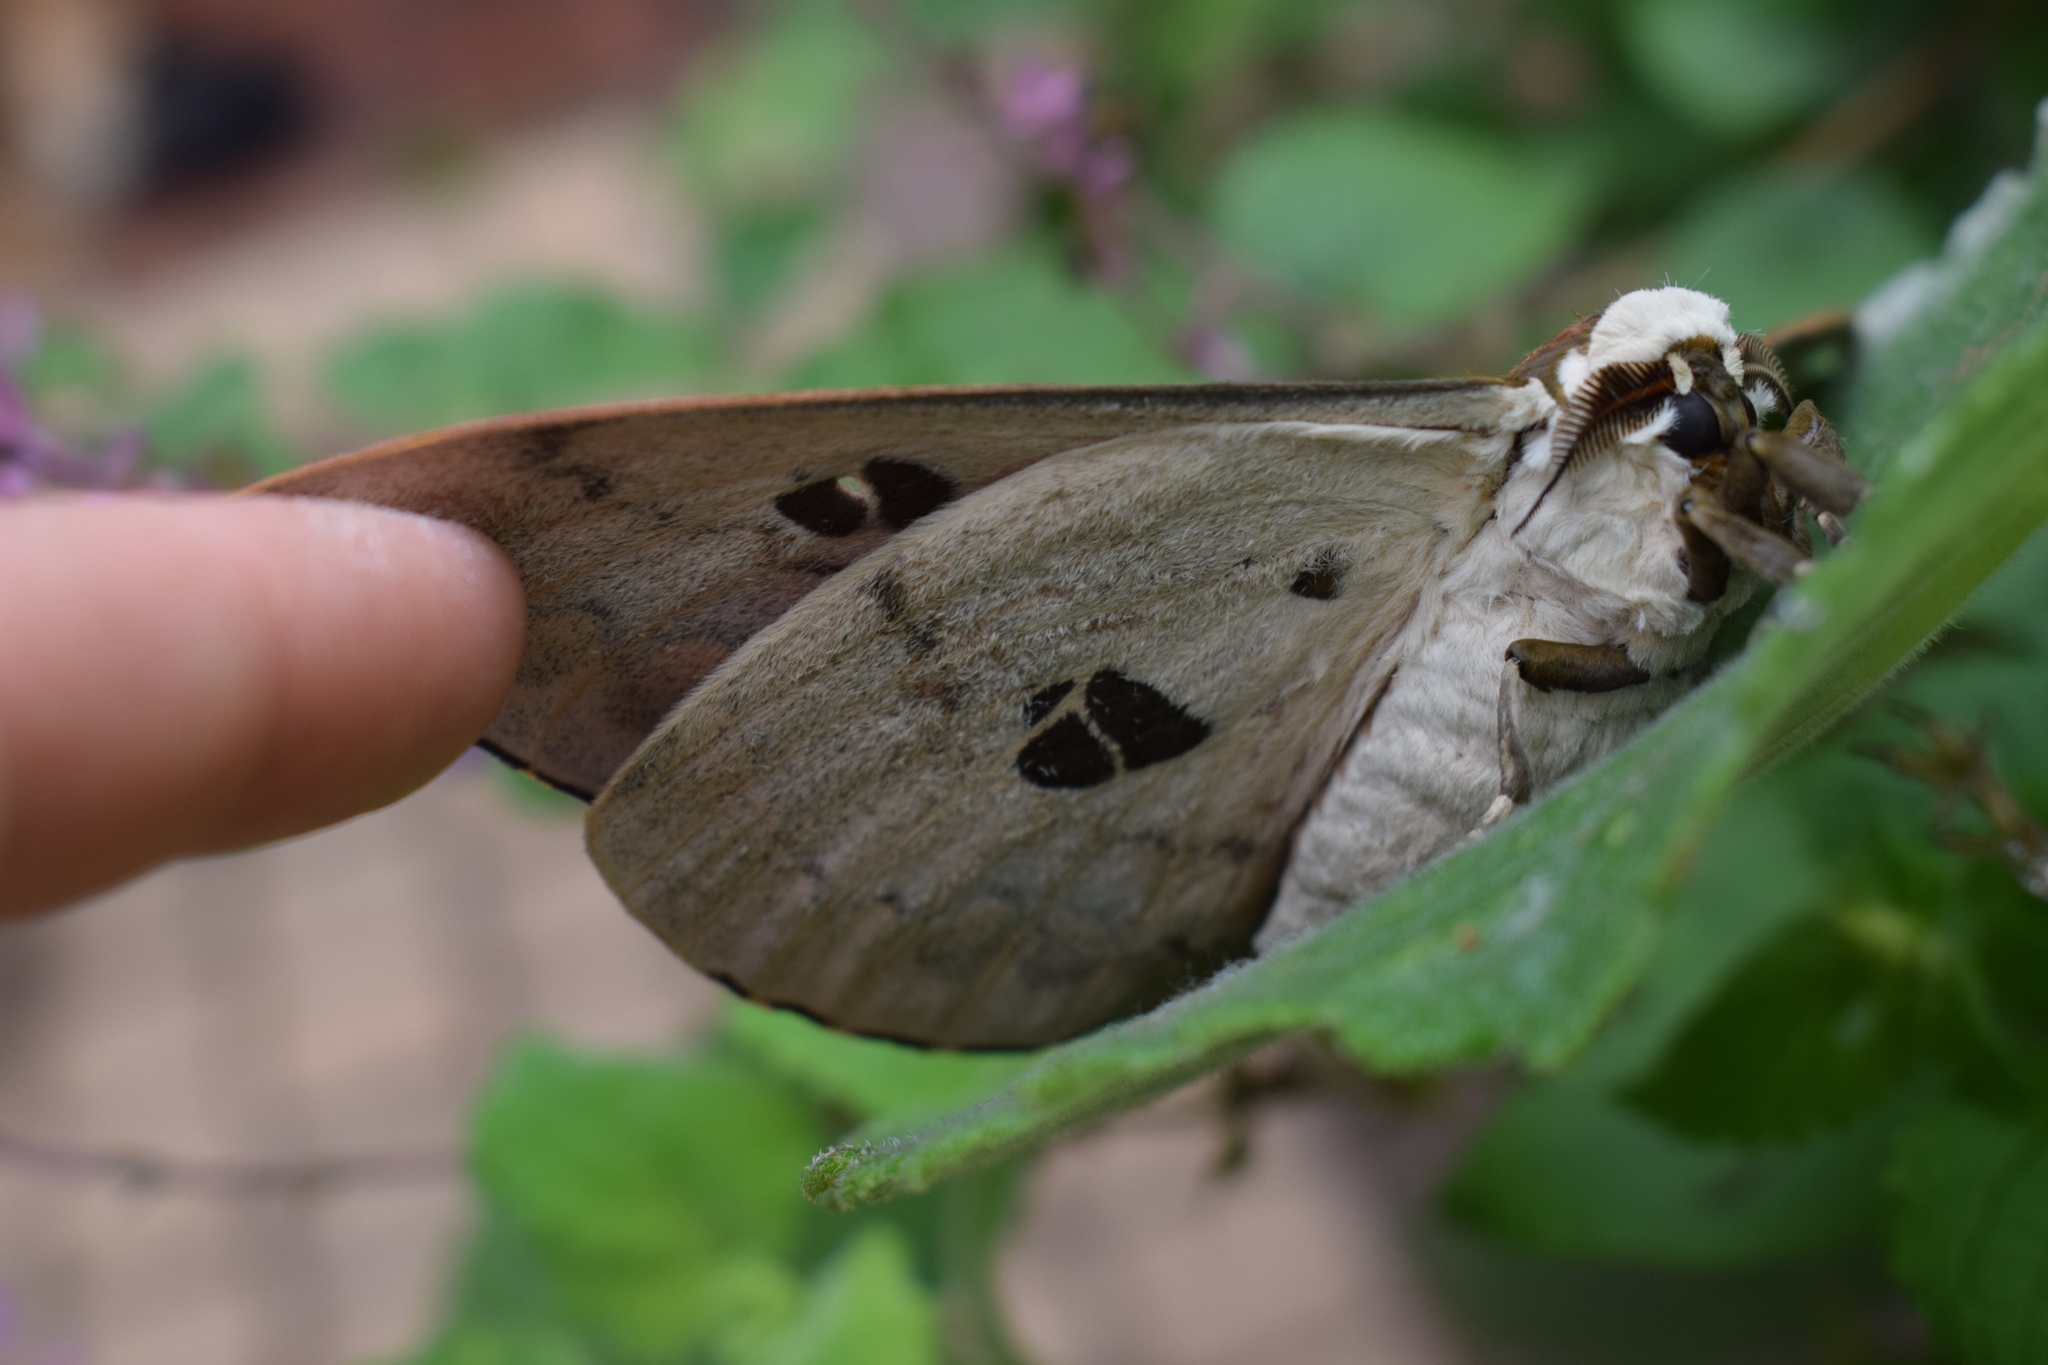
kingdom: Animalia
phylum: Arthropoda
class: Insecta
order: Lepidoptera
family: Saturniidae
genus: Pseudobunaea
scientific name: Pseudobunaea tyrrhena
